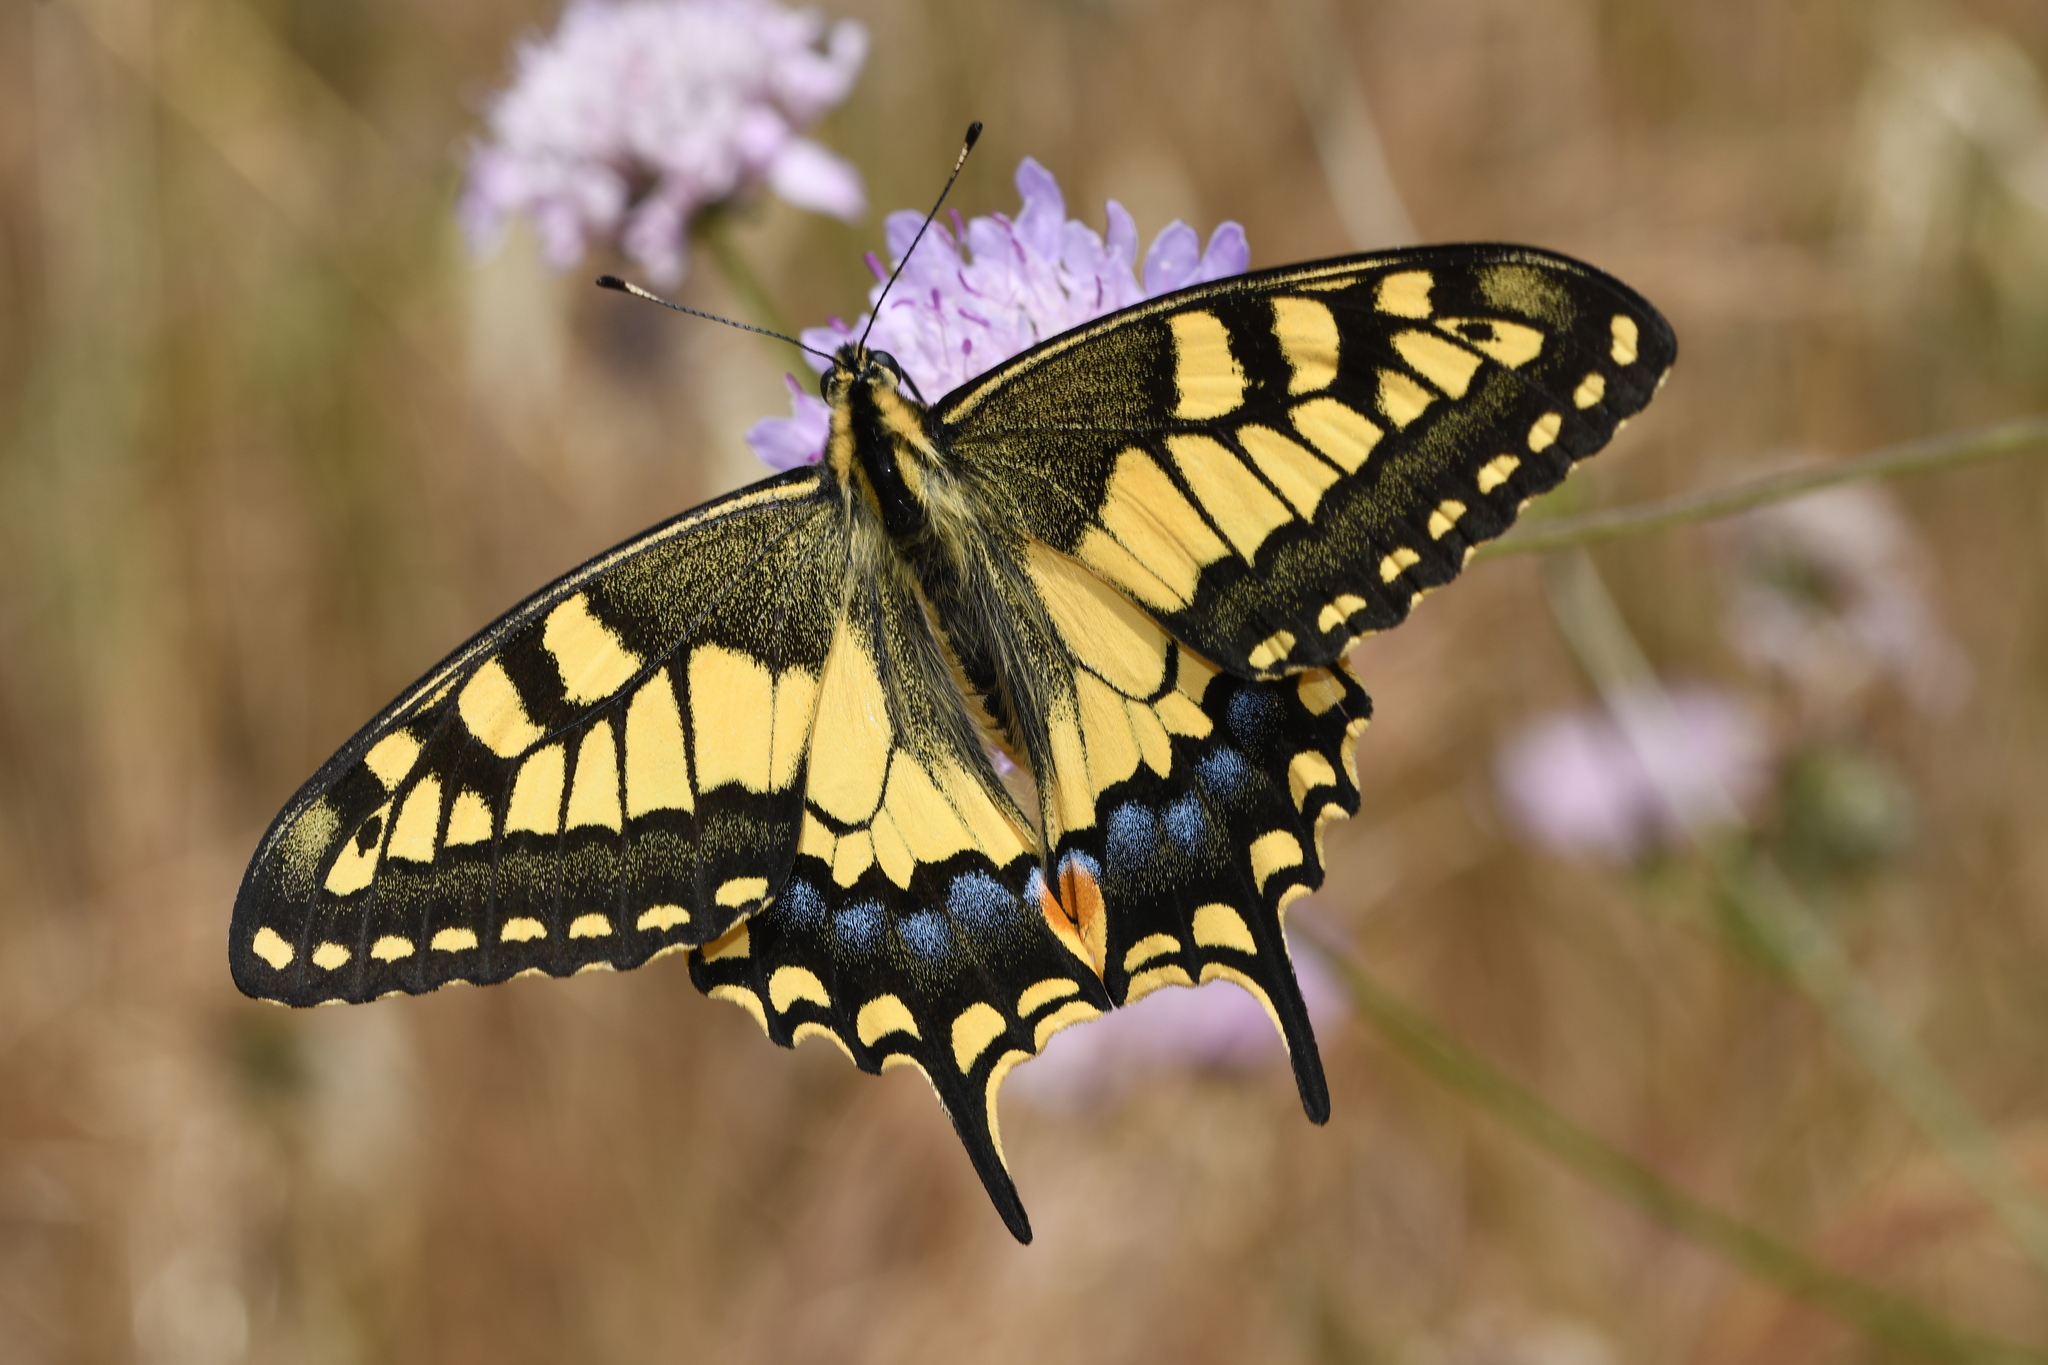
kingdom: Animalia
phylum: Arthropoda
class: Insecta
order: Lepidoptera
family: Papilionidae
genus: Papilio
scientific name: Papilio machaon
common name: Swallowtail
